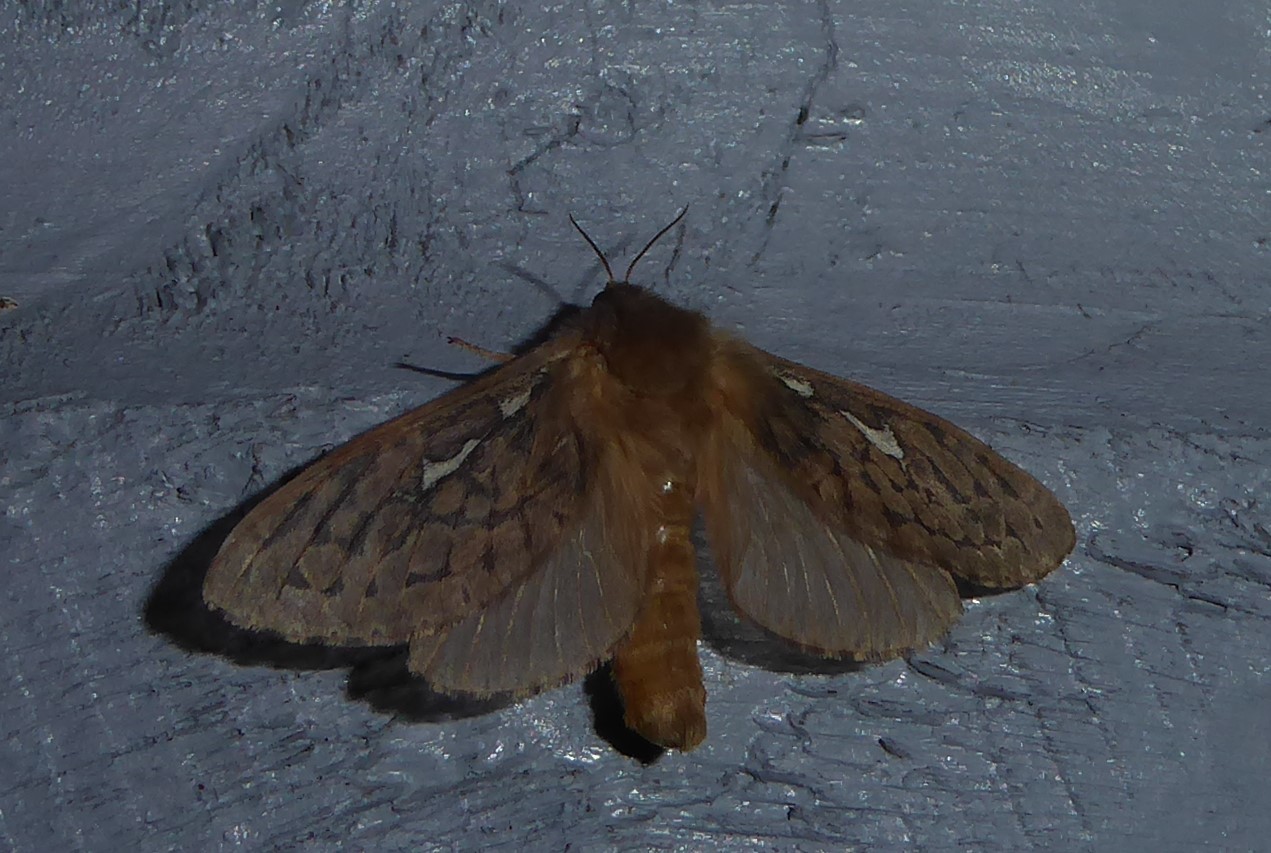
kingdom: Animalia
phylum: Arthropoda
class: Insecta
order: Lepidoptera
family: Hepialidae
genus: Wiseana
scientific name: Wiseana copularis
